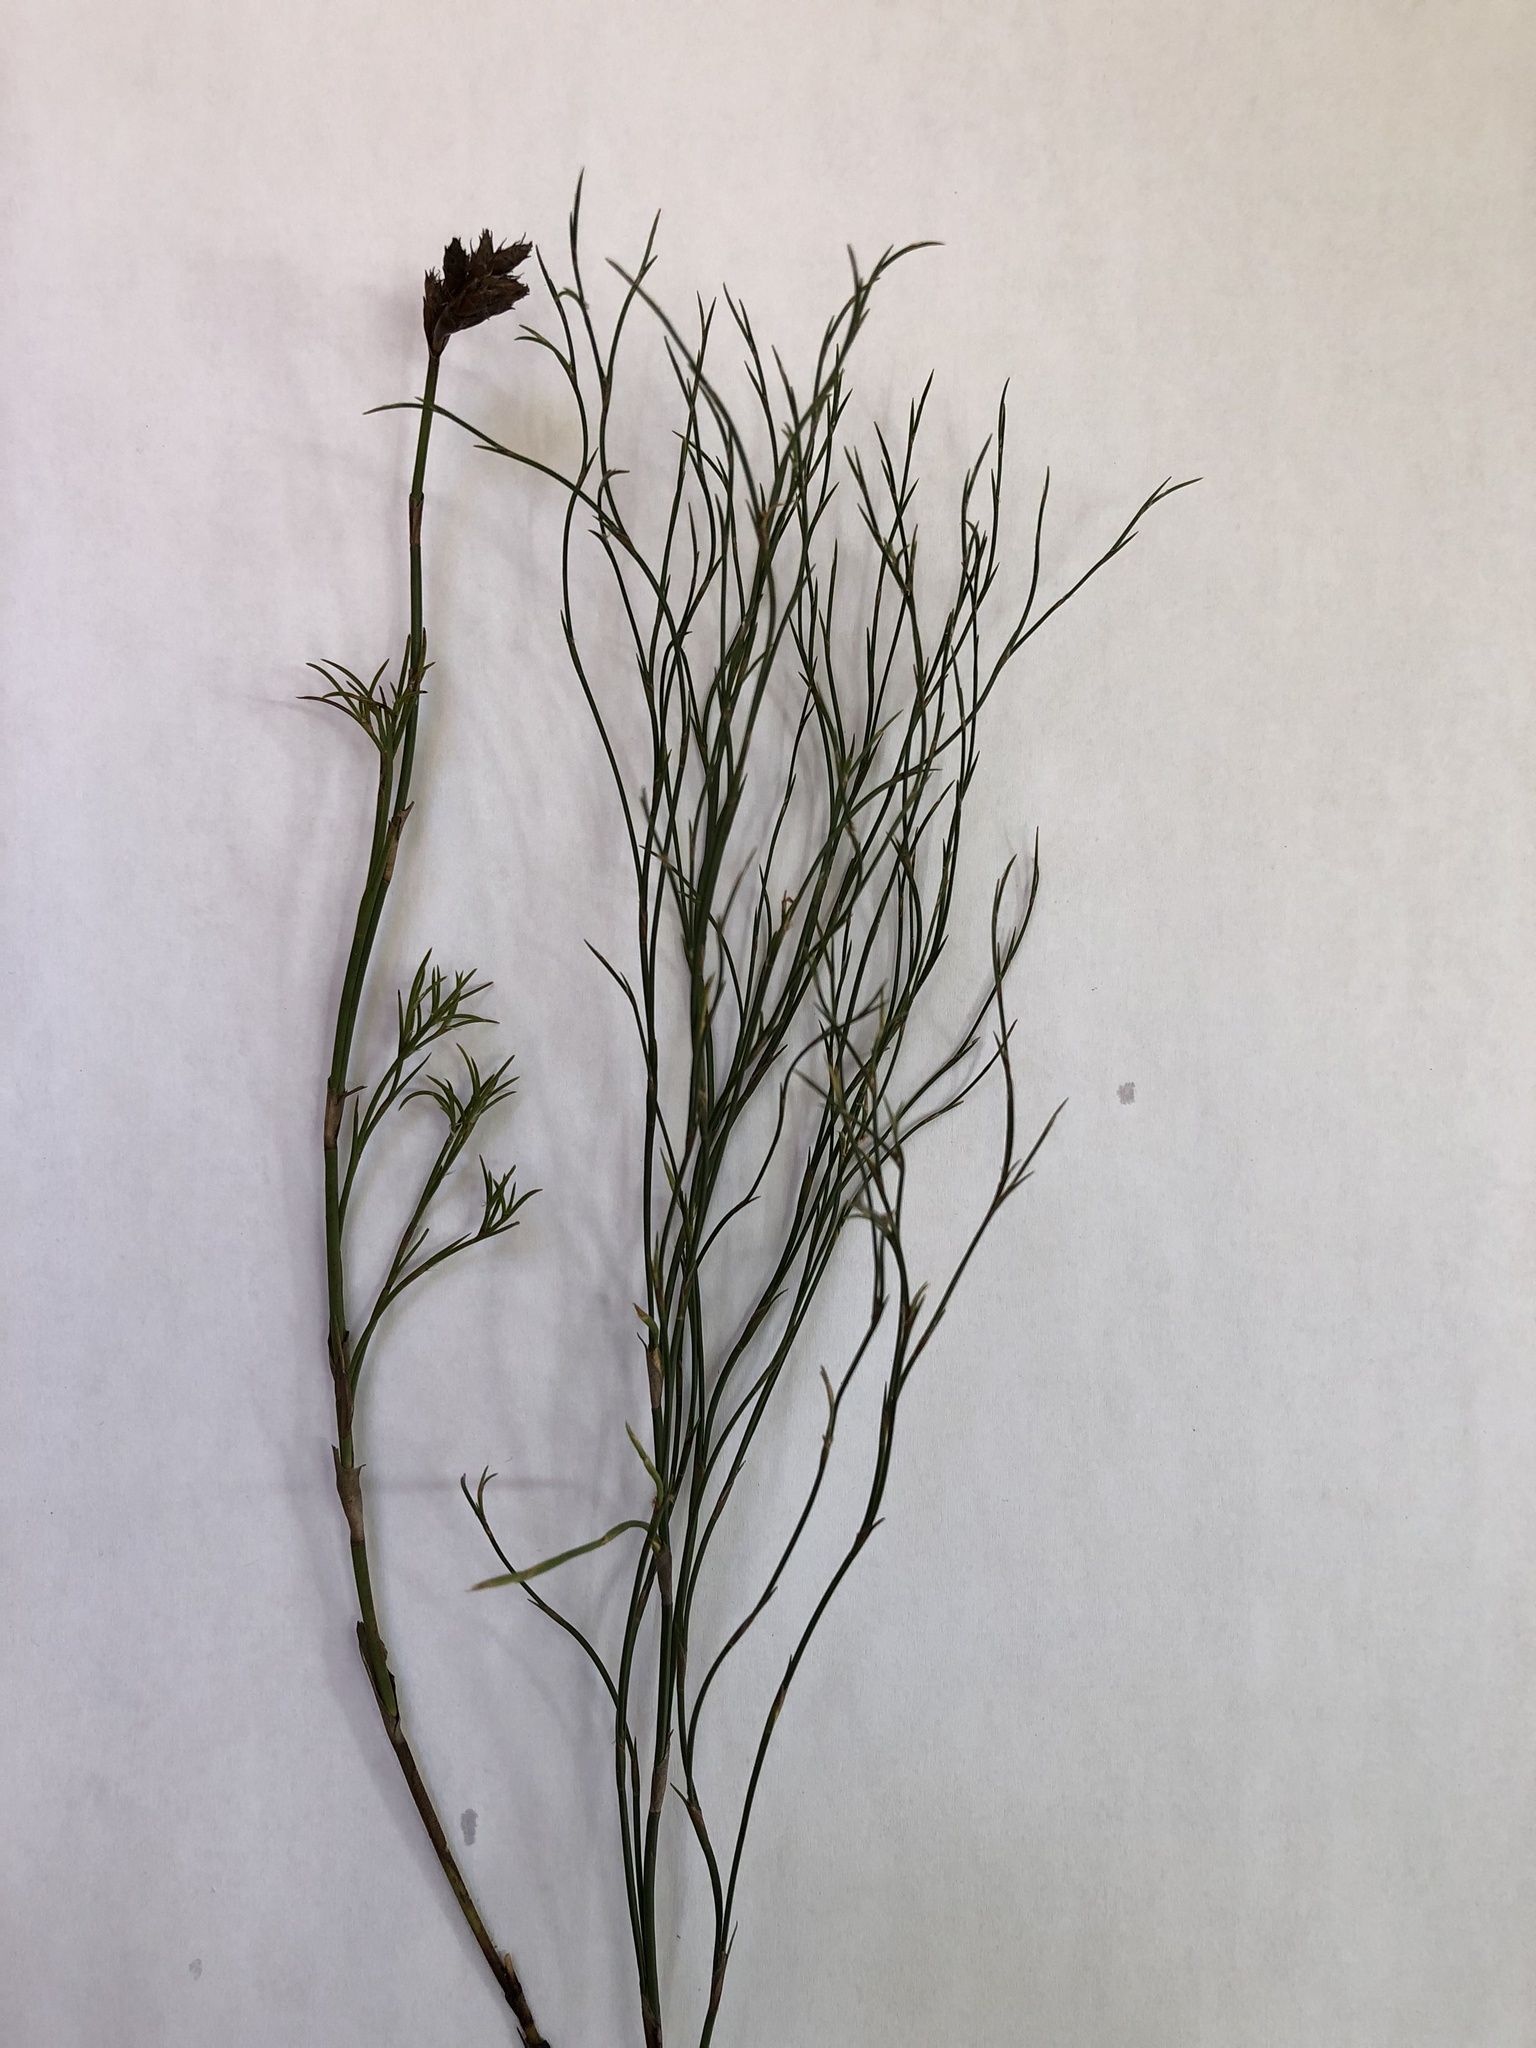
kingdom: Plantae
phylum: Tracheophyta
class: Liliopsida
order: Poales
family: Restionaceae
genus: Restio
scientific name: Restio capensis
